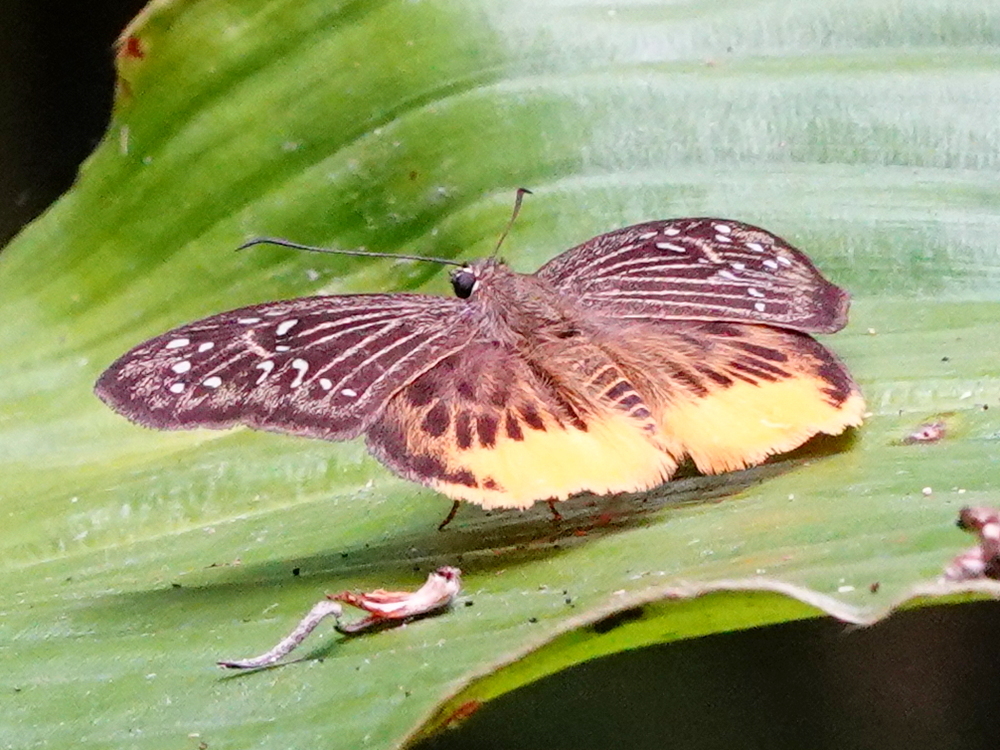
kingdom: Animalia
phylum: Arthropoda
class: Insecta
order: Lepidoptera
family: Hesperiidae
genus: Mooreana
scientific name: Mooreana trichoneura
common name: Yellow flat
